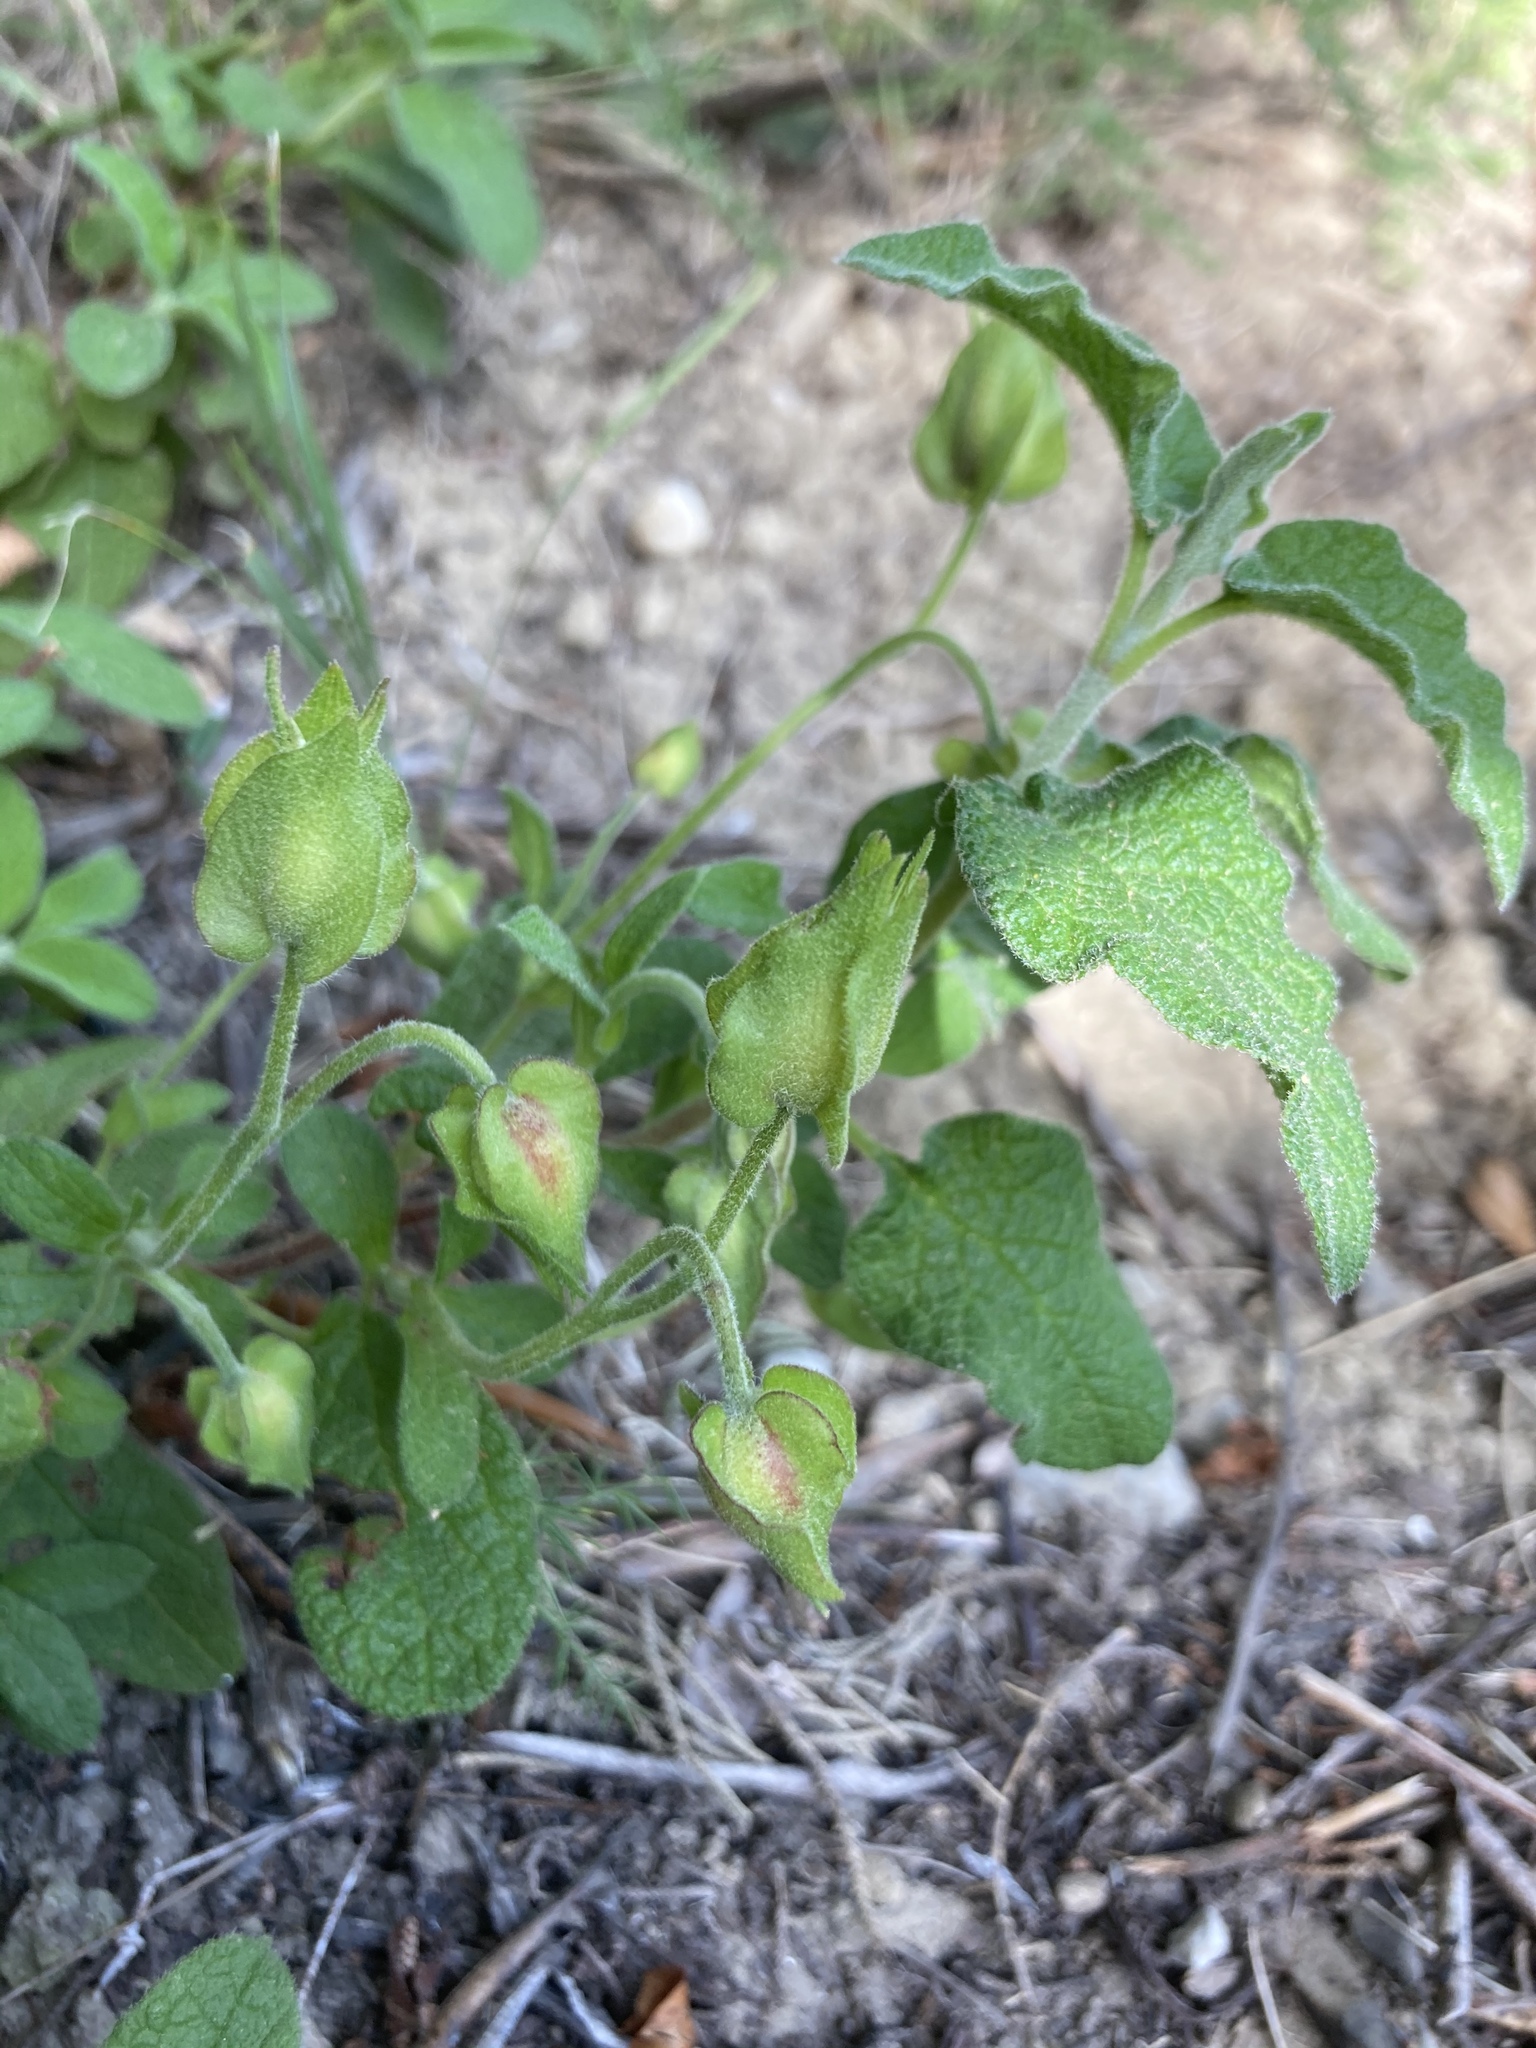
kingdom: Plantae
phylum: Tracheophyta
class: Magnoliopsida
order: Malvales
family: Cistaceae
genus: Cistus
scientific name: Cistus salviifolius
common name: Salvia cistus
